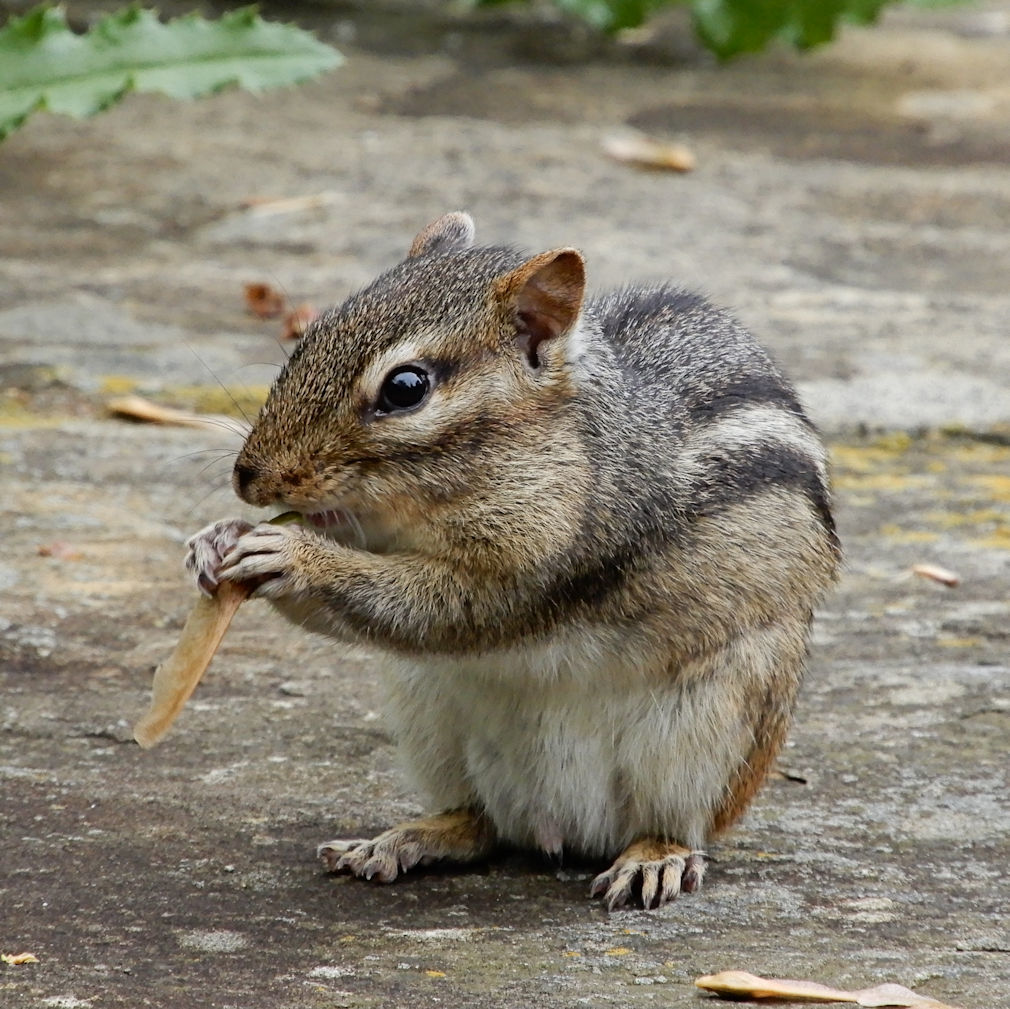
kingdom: Animalia
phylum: Chordata
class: Mammalia
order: Rodentia
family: Sciuridae
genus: Tamias
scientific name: Tamias striatus
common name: Eastern chipmunk
